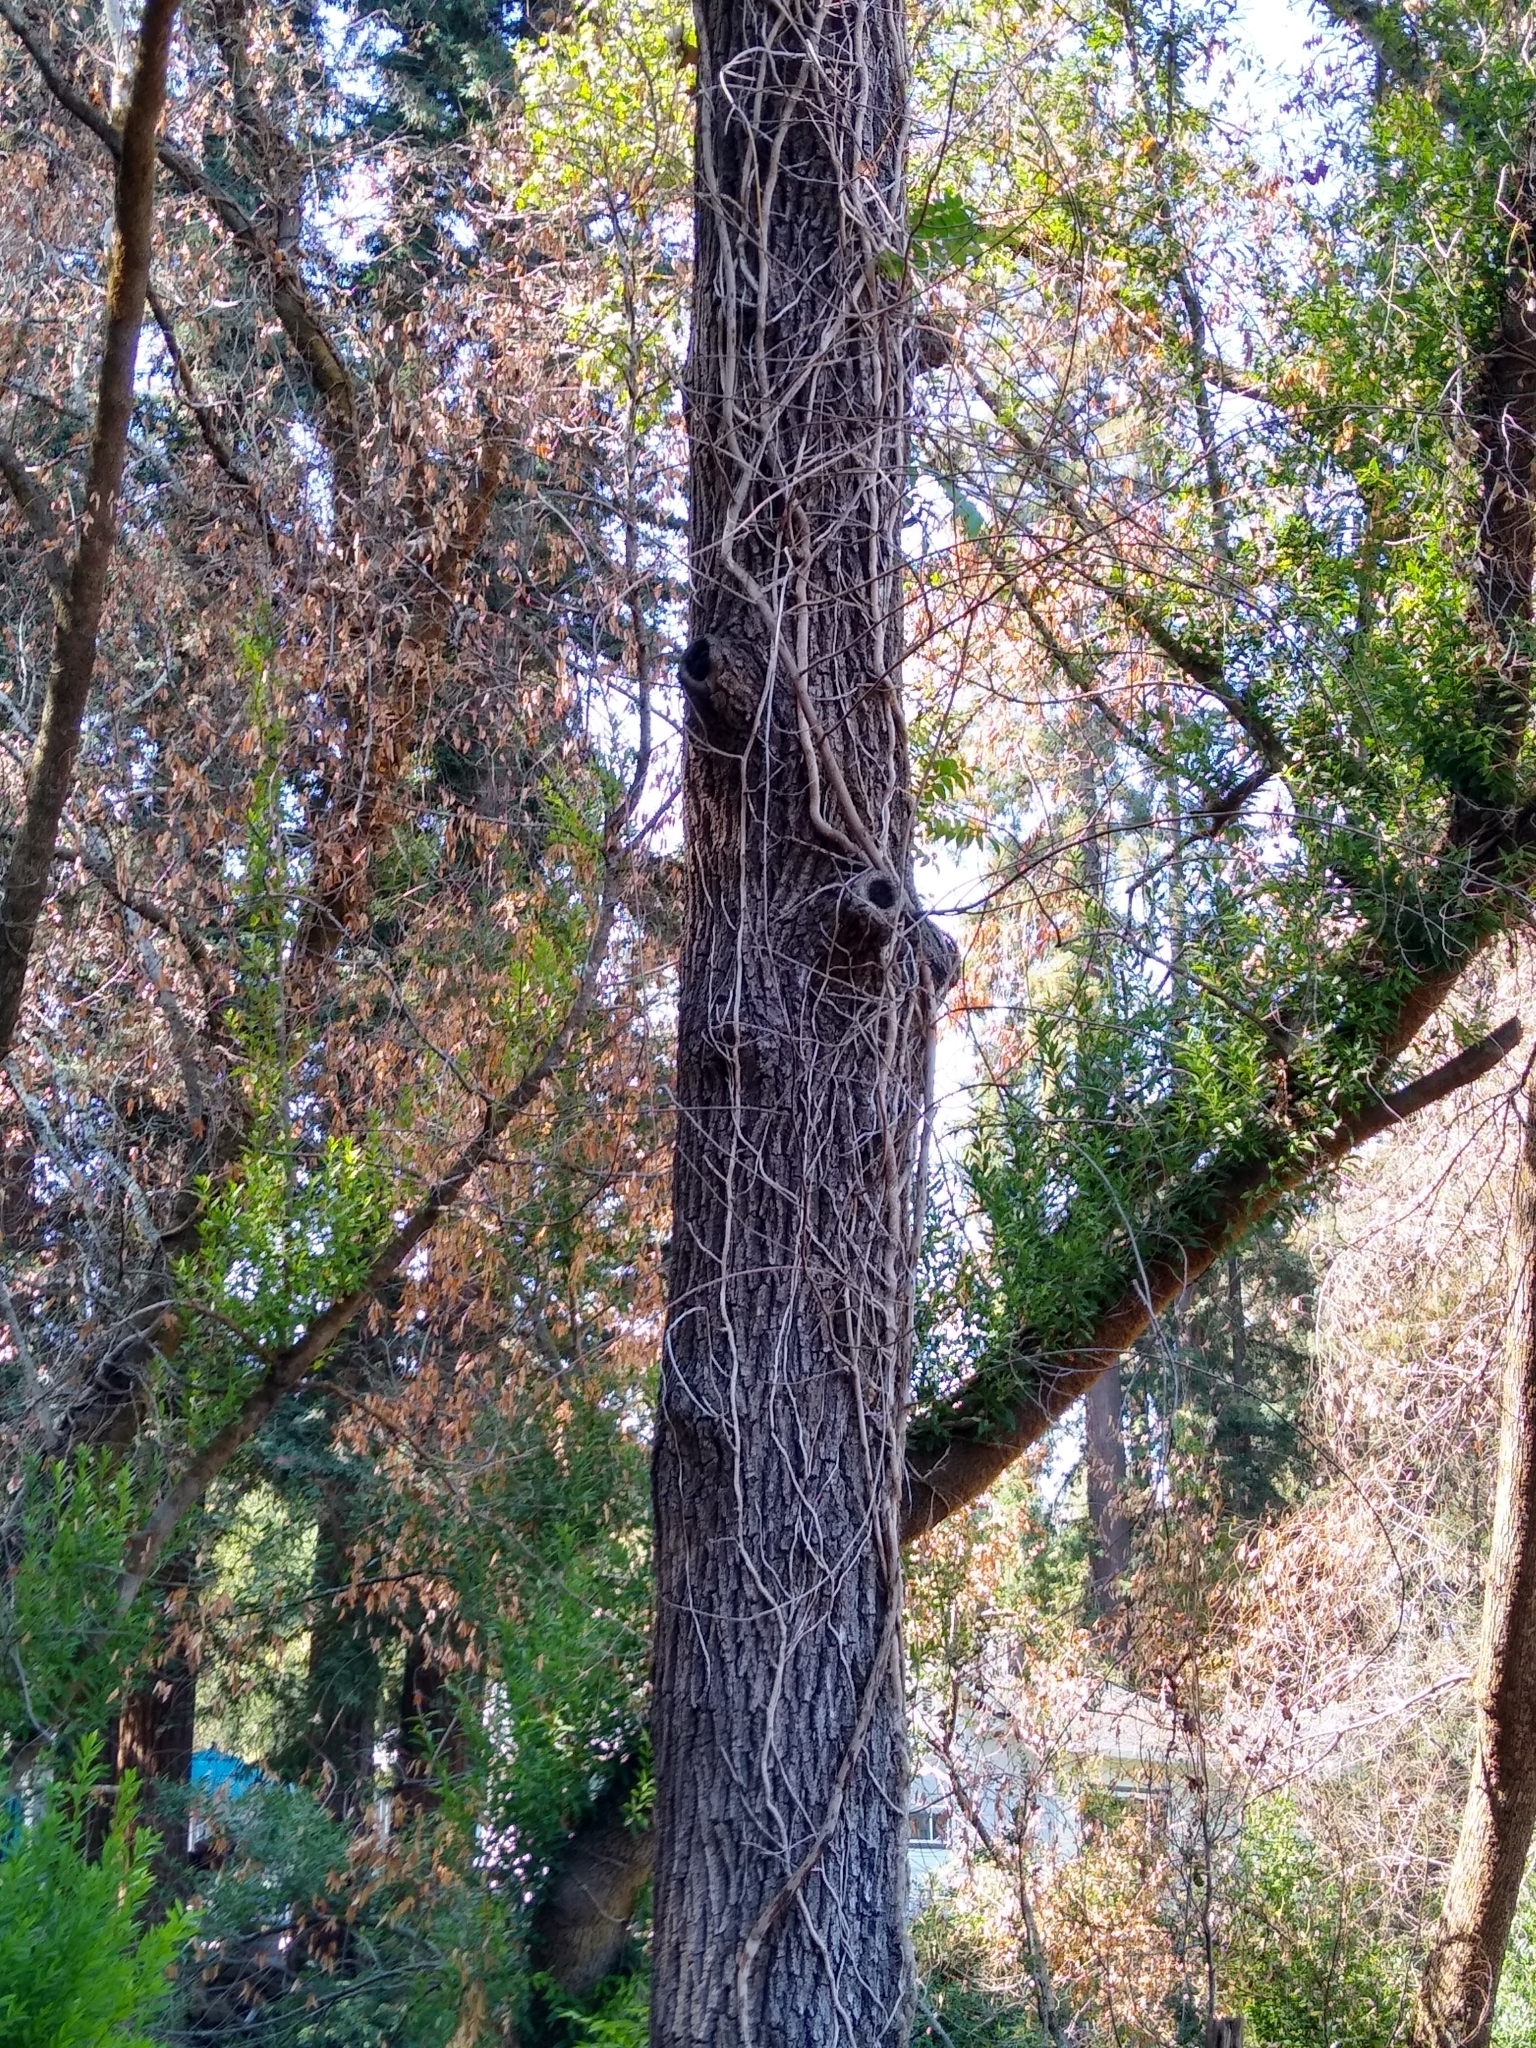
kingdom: Plantae
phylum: Tracheophyta
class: Magnoliopsida
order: Fagales
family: Juglandaceae
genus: Juglans
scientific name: Juglans hindsii
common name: Northern california black walnut
